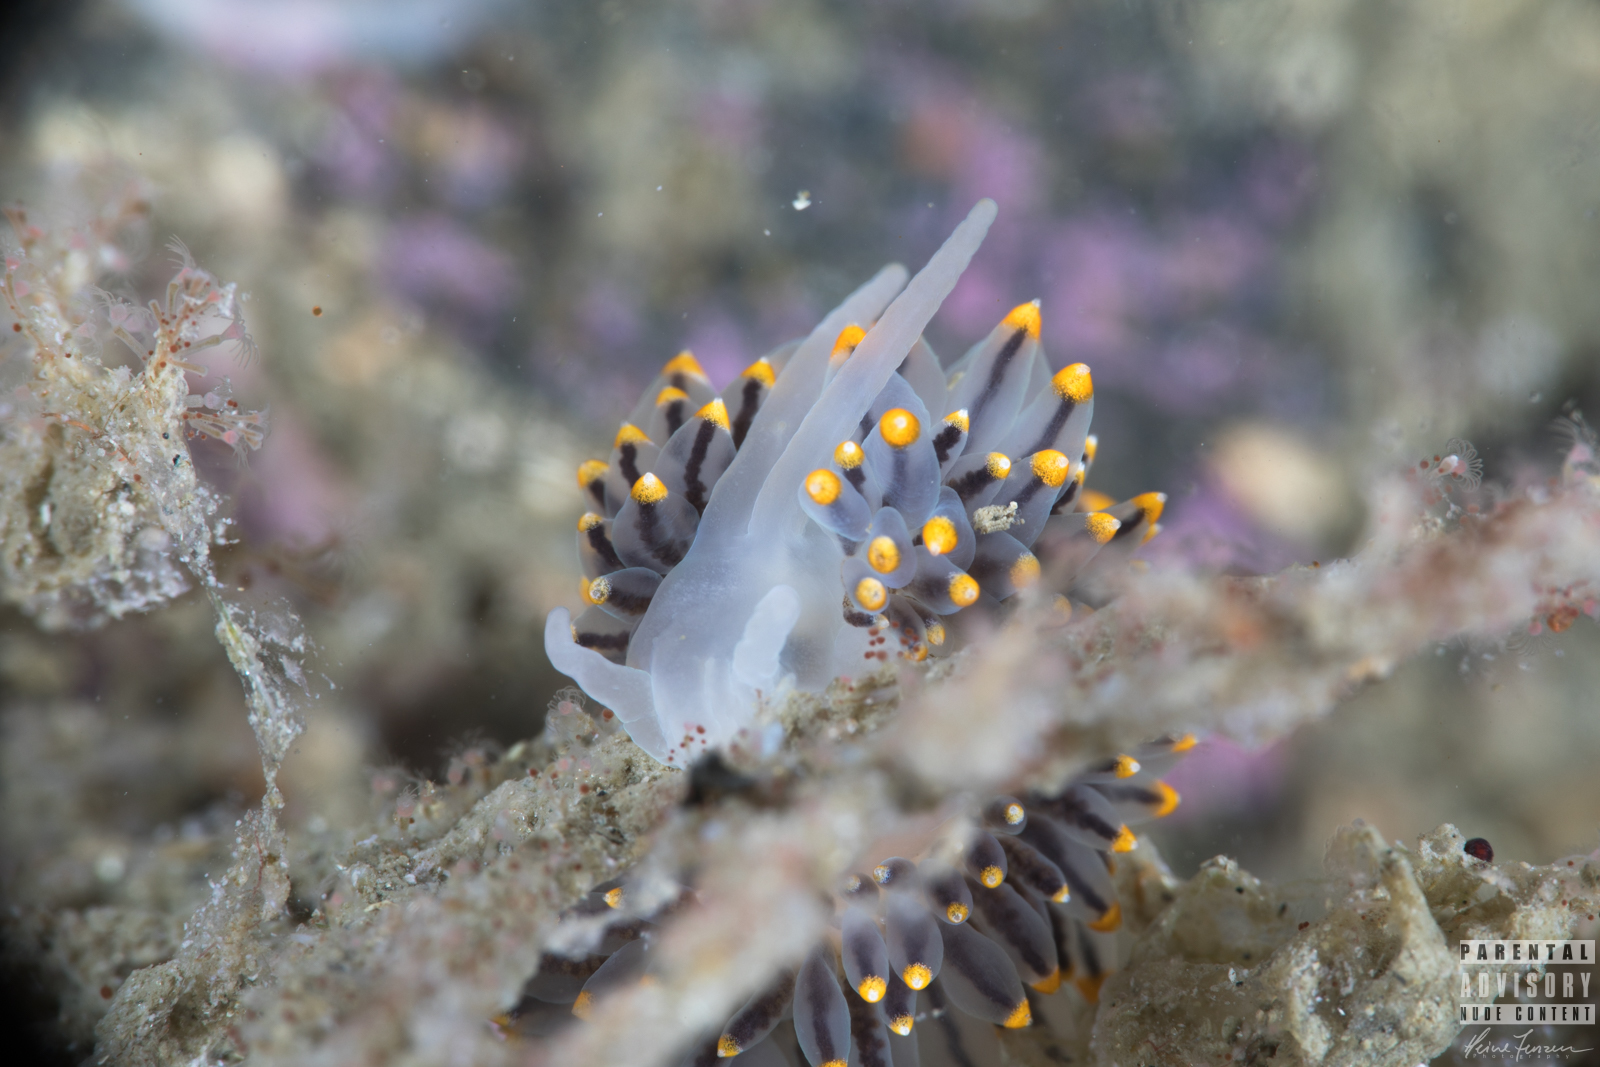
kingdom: Animalia
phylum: Mollusca
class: Gastropoda
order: Nudibranchia
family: Eubranchidae
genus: Eubranchus
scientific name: Eubranchus tricolor
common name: Painted balloon aeolis
